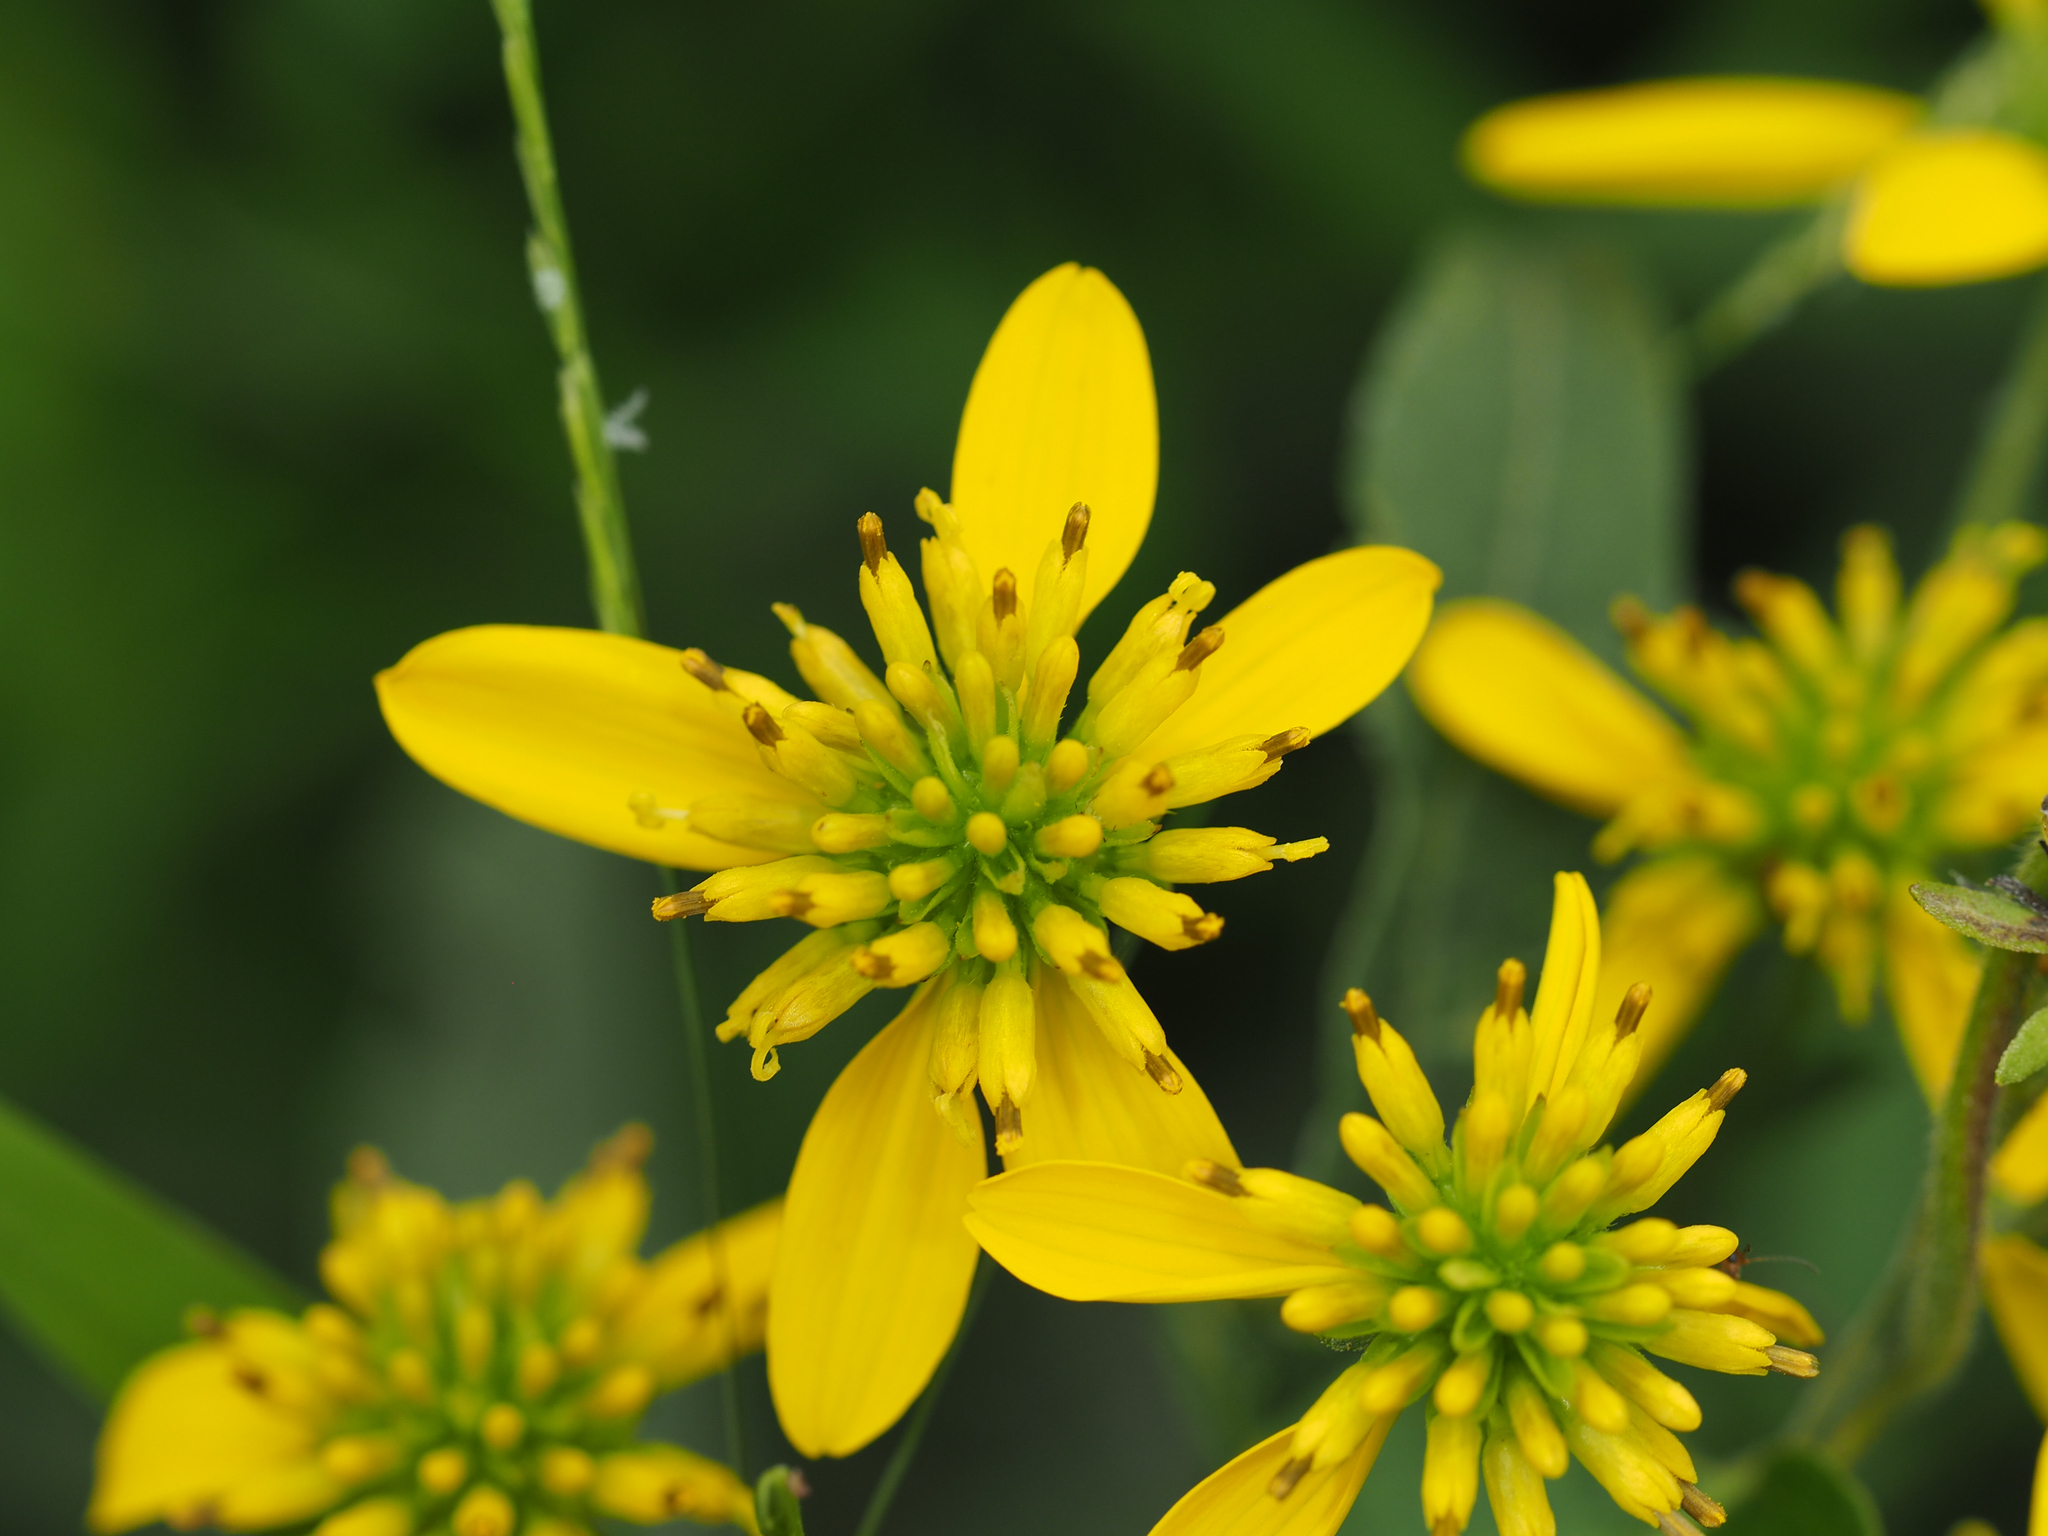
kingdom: Plantae
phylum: Tracheophyta
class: Magnoliopsida
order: Asterales
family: Asteraceae
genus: Verbesina
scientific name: Verbesina alternifolia
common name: Wingstem
